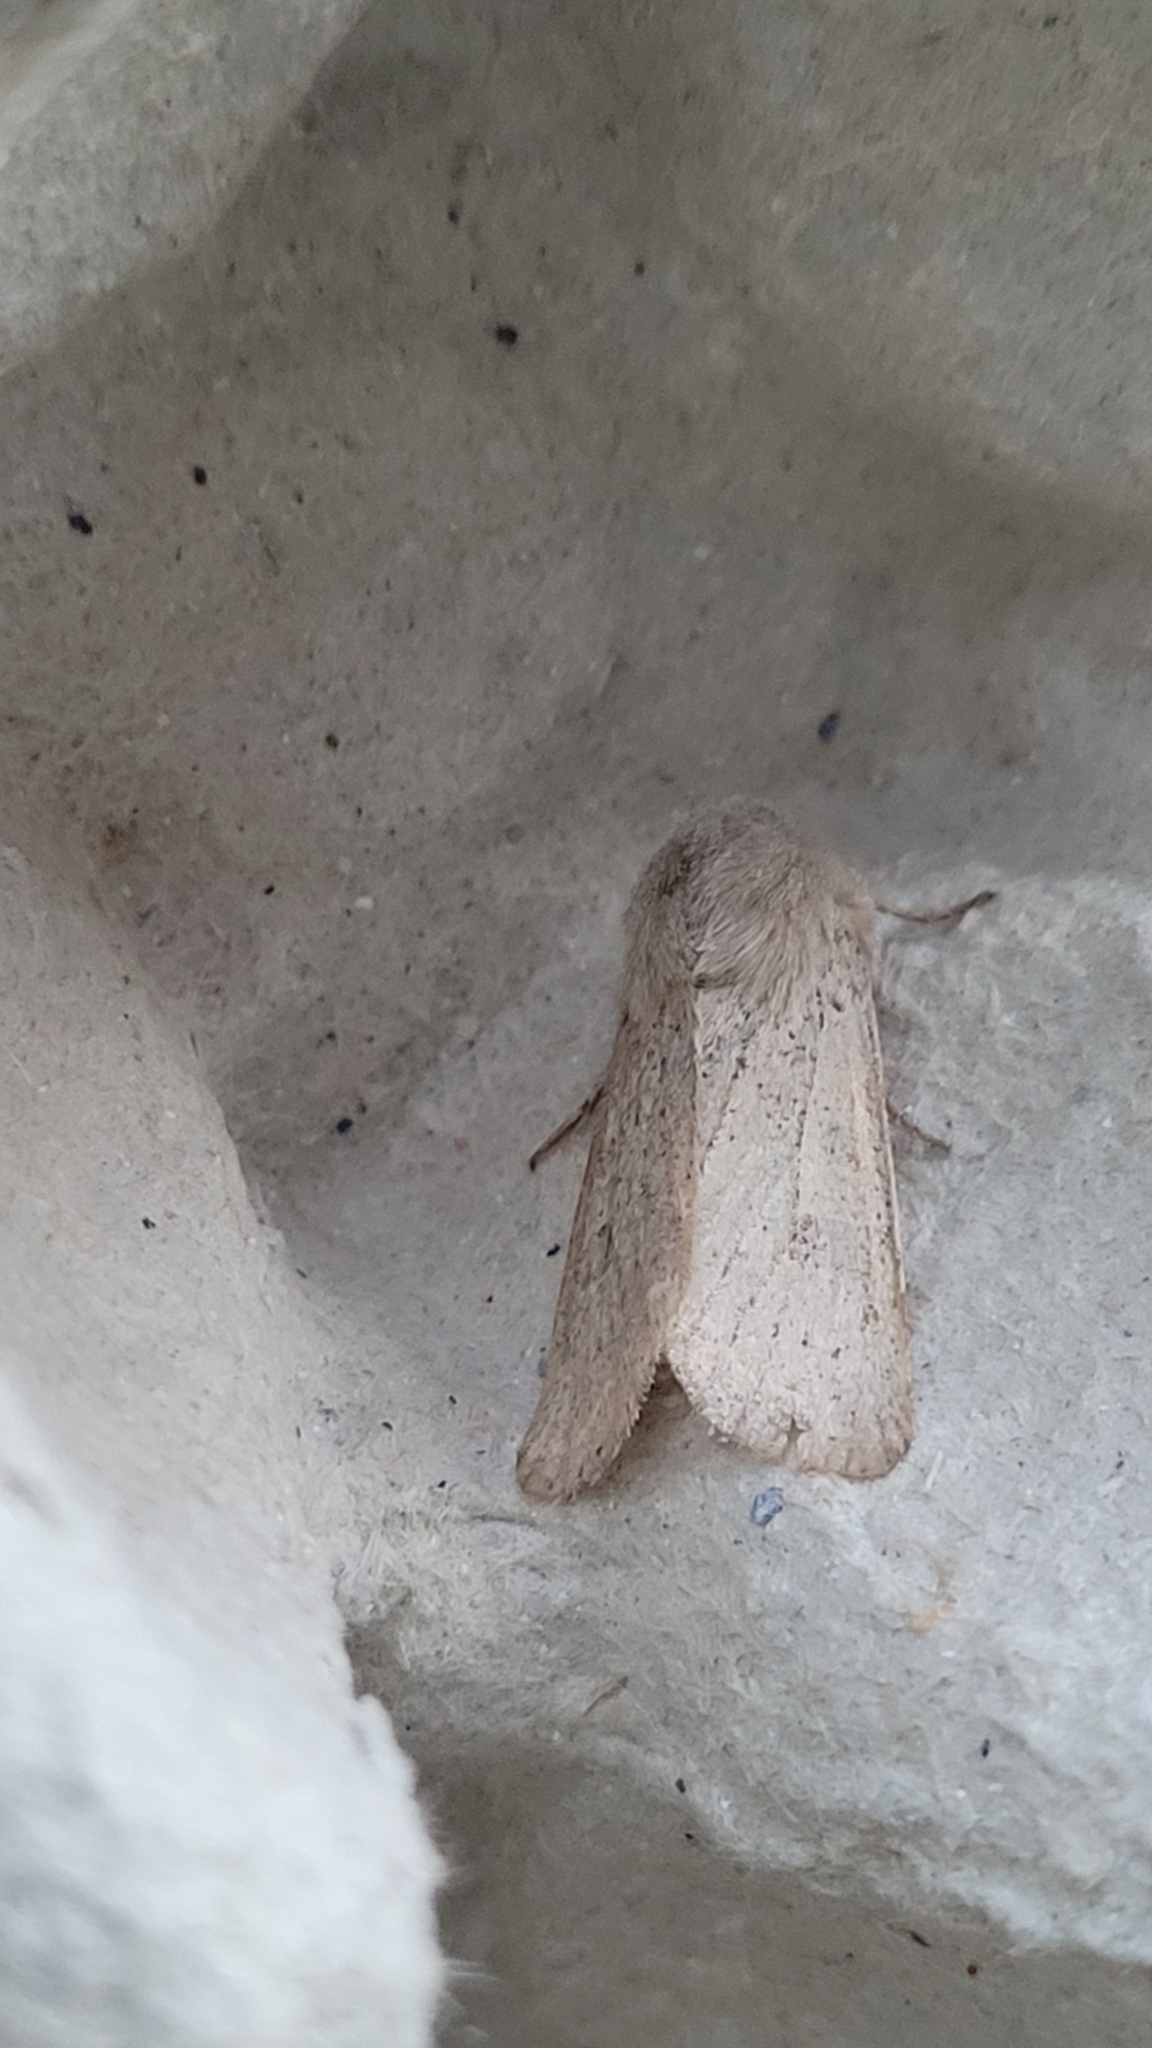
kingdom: Animalia
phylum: Arthropoda
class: Insecta
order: Lepidoptera
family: Noctuidae
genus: Orthosia
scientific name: Orthosia gracilis
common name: Powdered quaker
